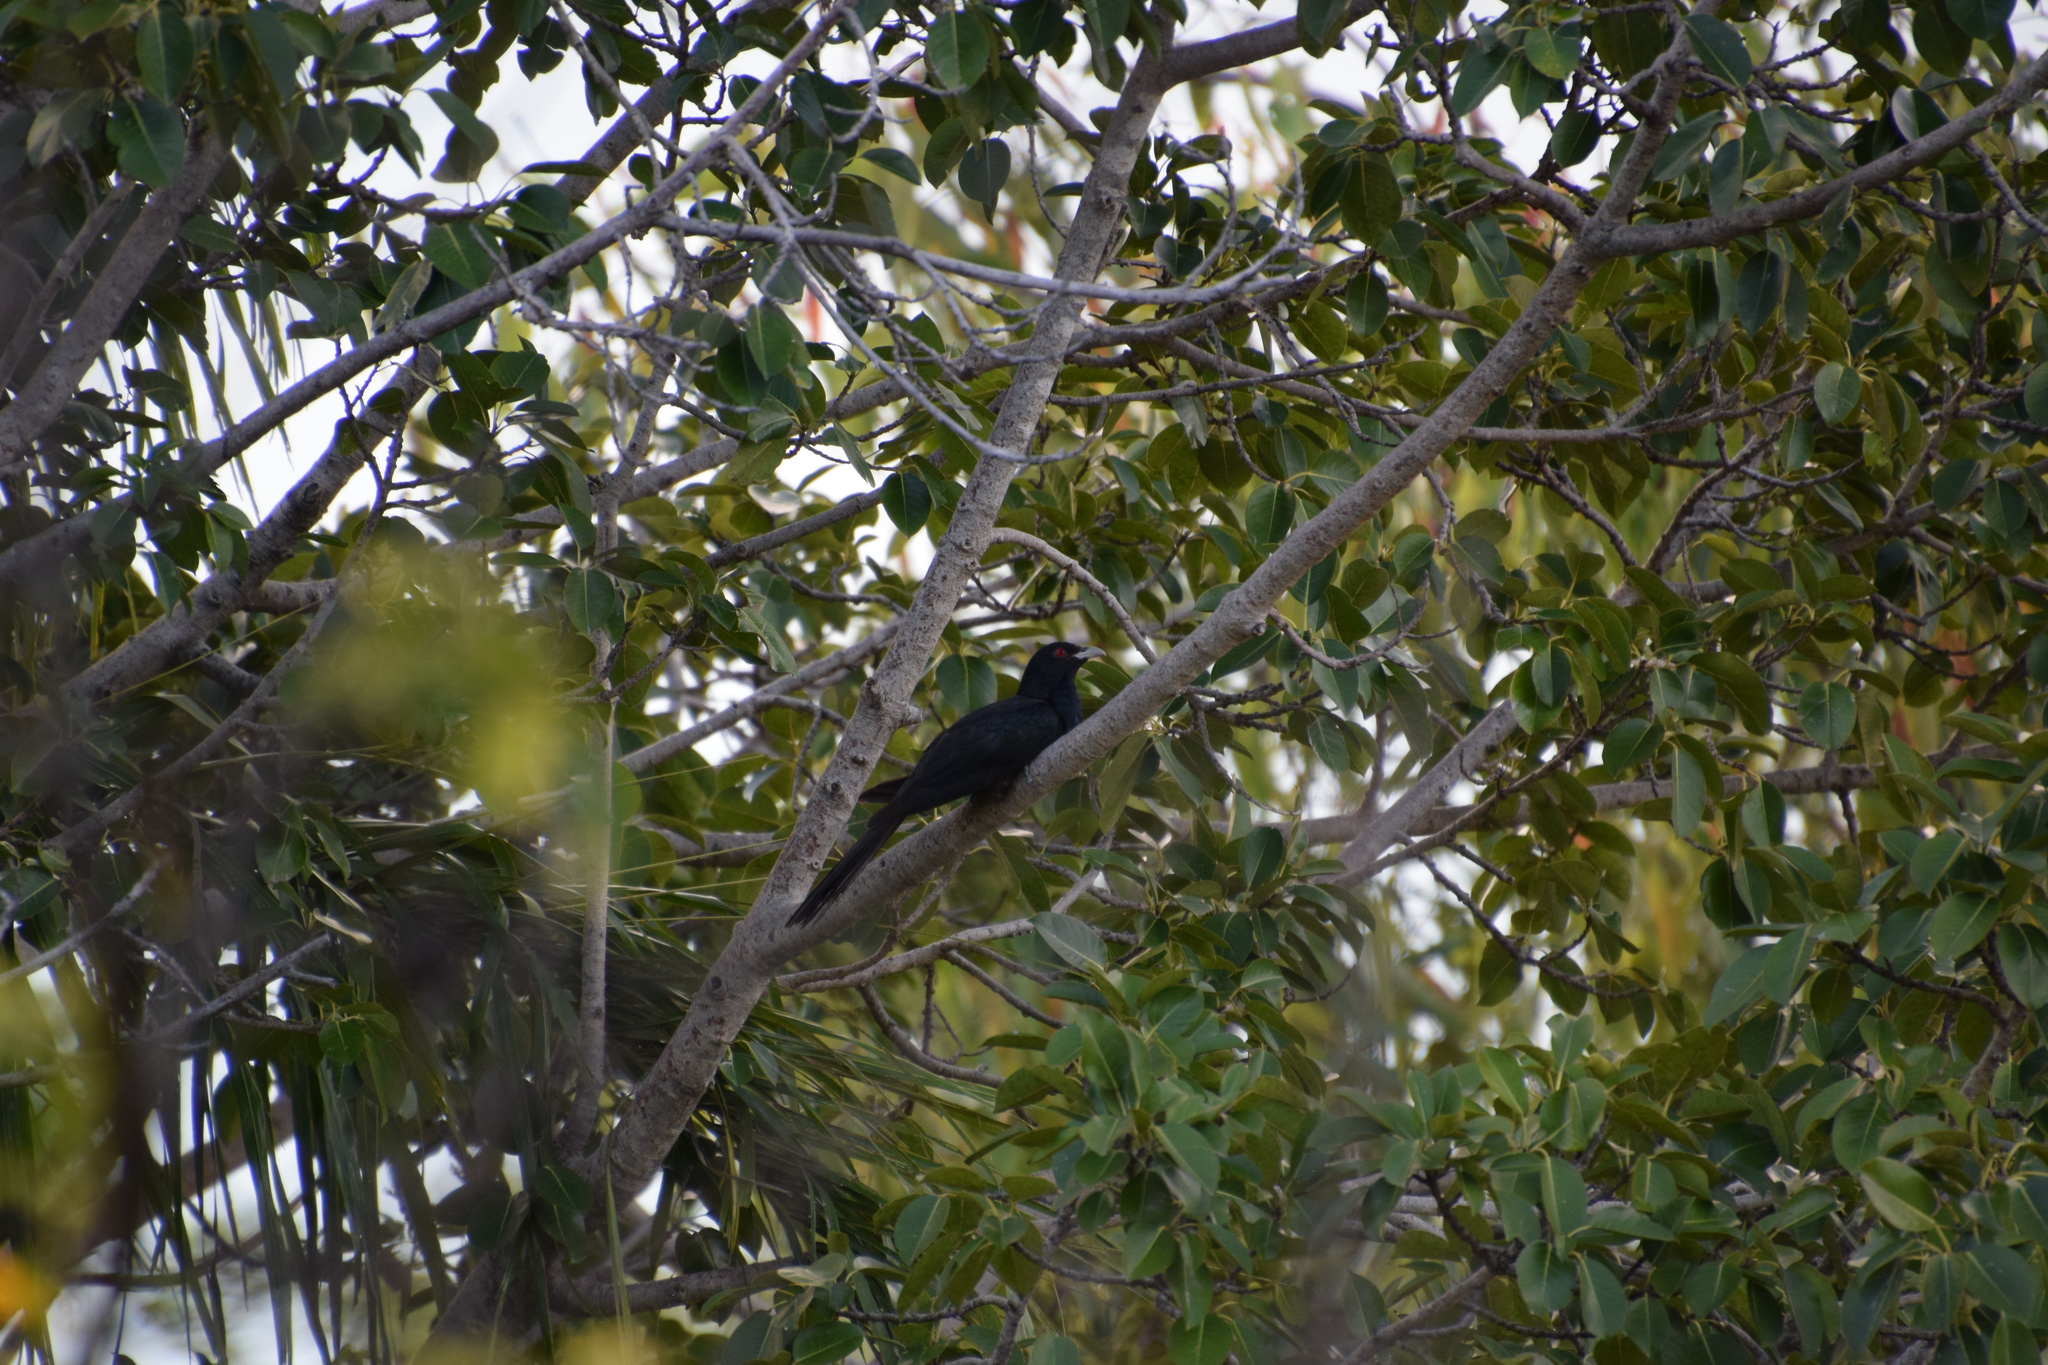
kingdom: Animalia
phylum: Chordata
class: Aves
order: Cuculiformes
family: Cuculidae
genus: Eudynamys
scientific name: Eudynamys orientalis
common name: Pacific koel
